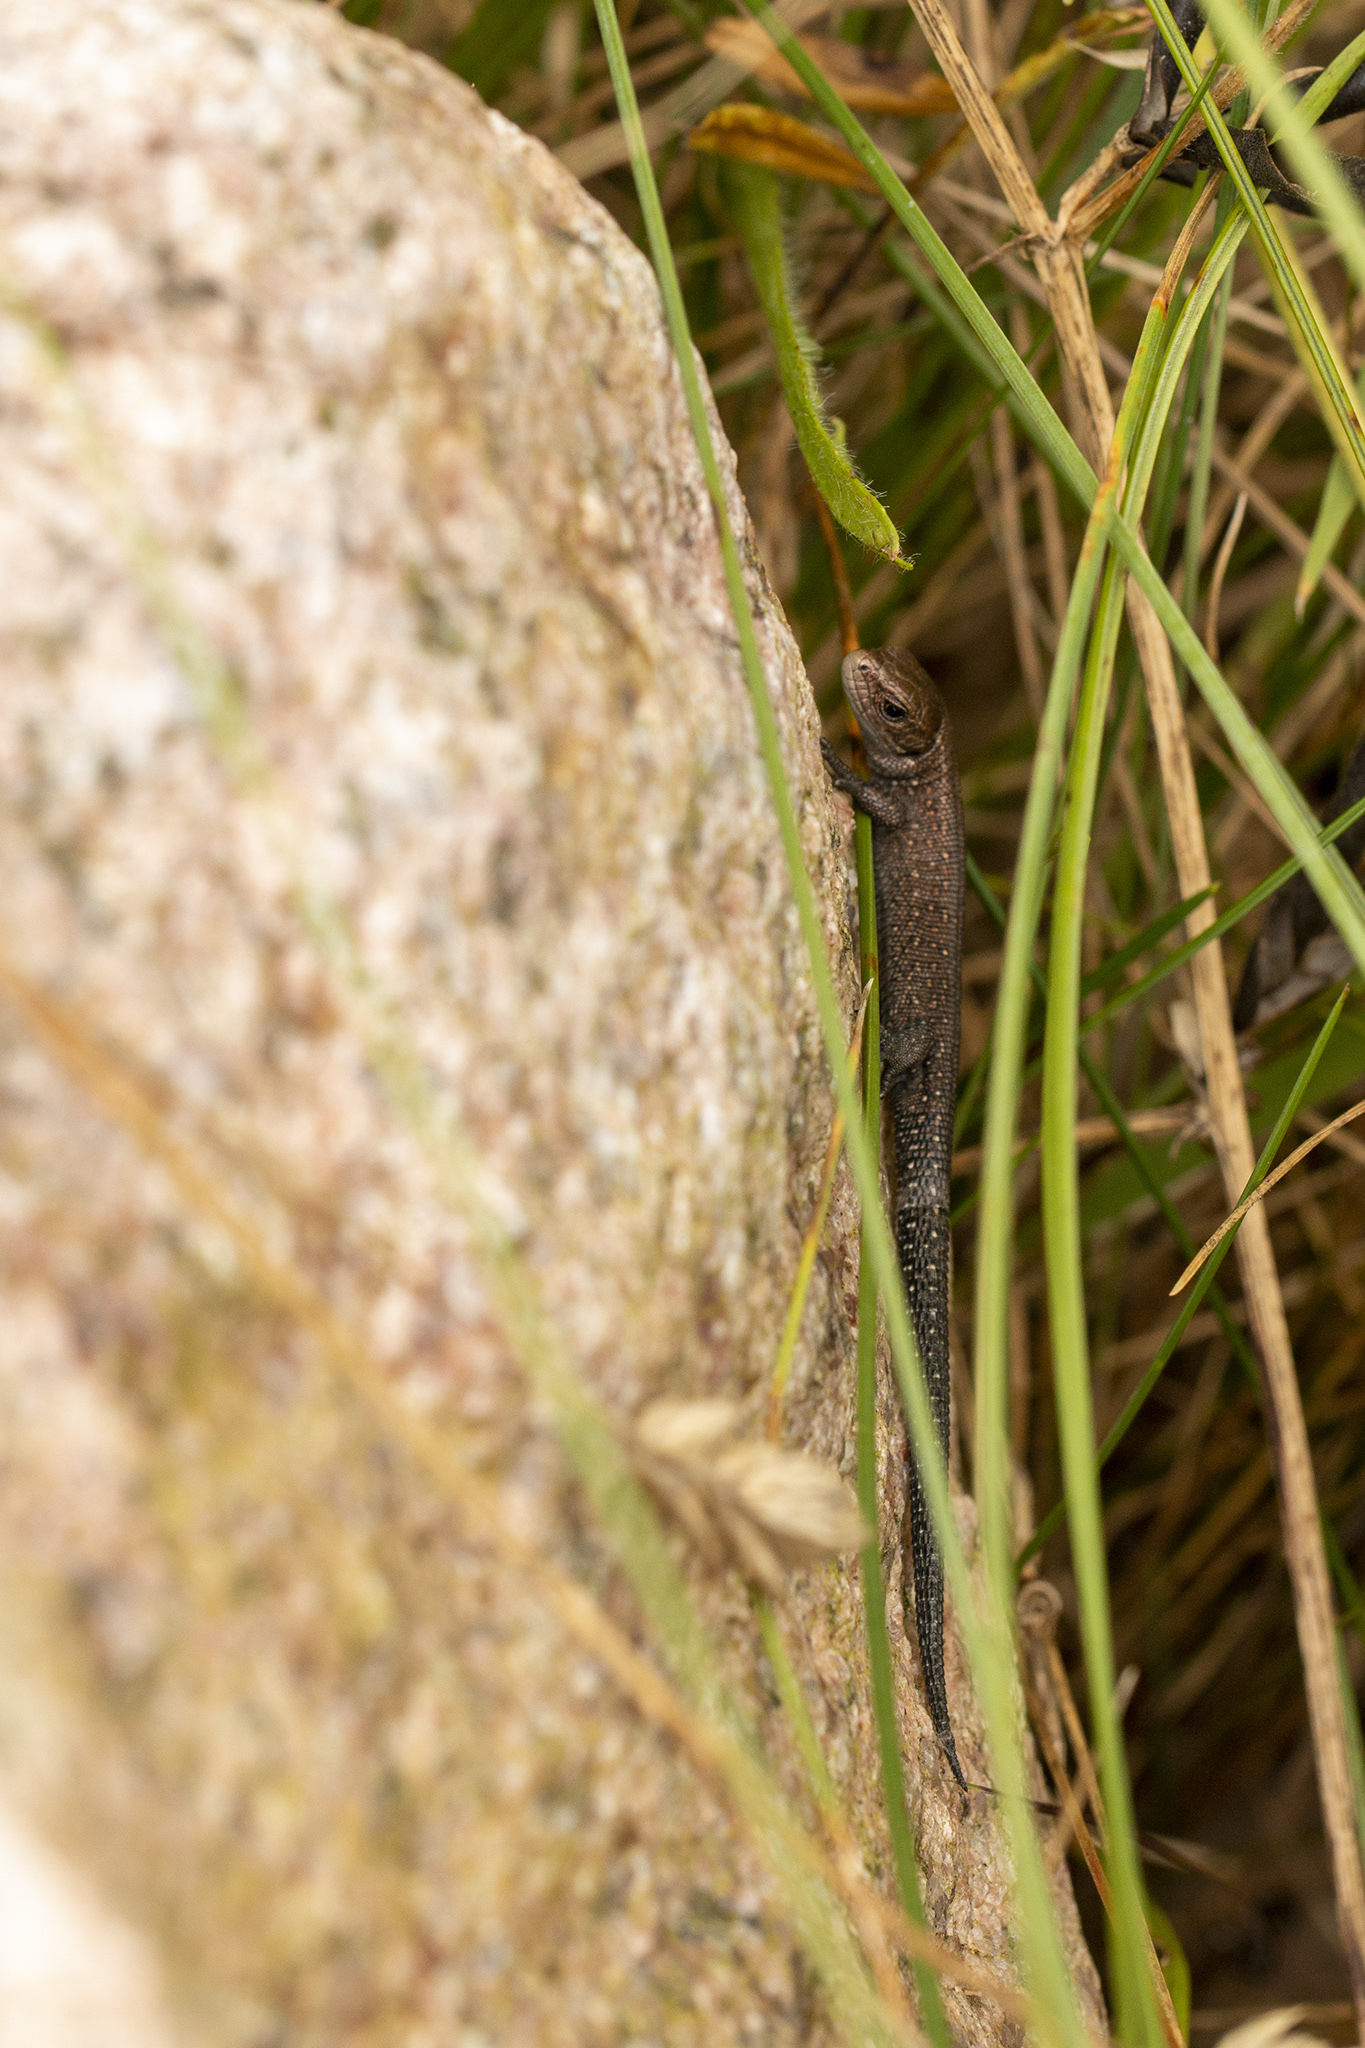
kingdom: Animalia
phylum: Chordata
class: Squamata
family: Lacertidae
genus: Zootoca
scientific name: Zootoca vivipara
